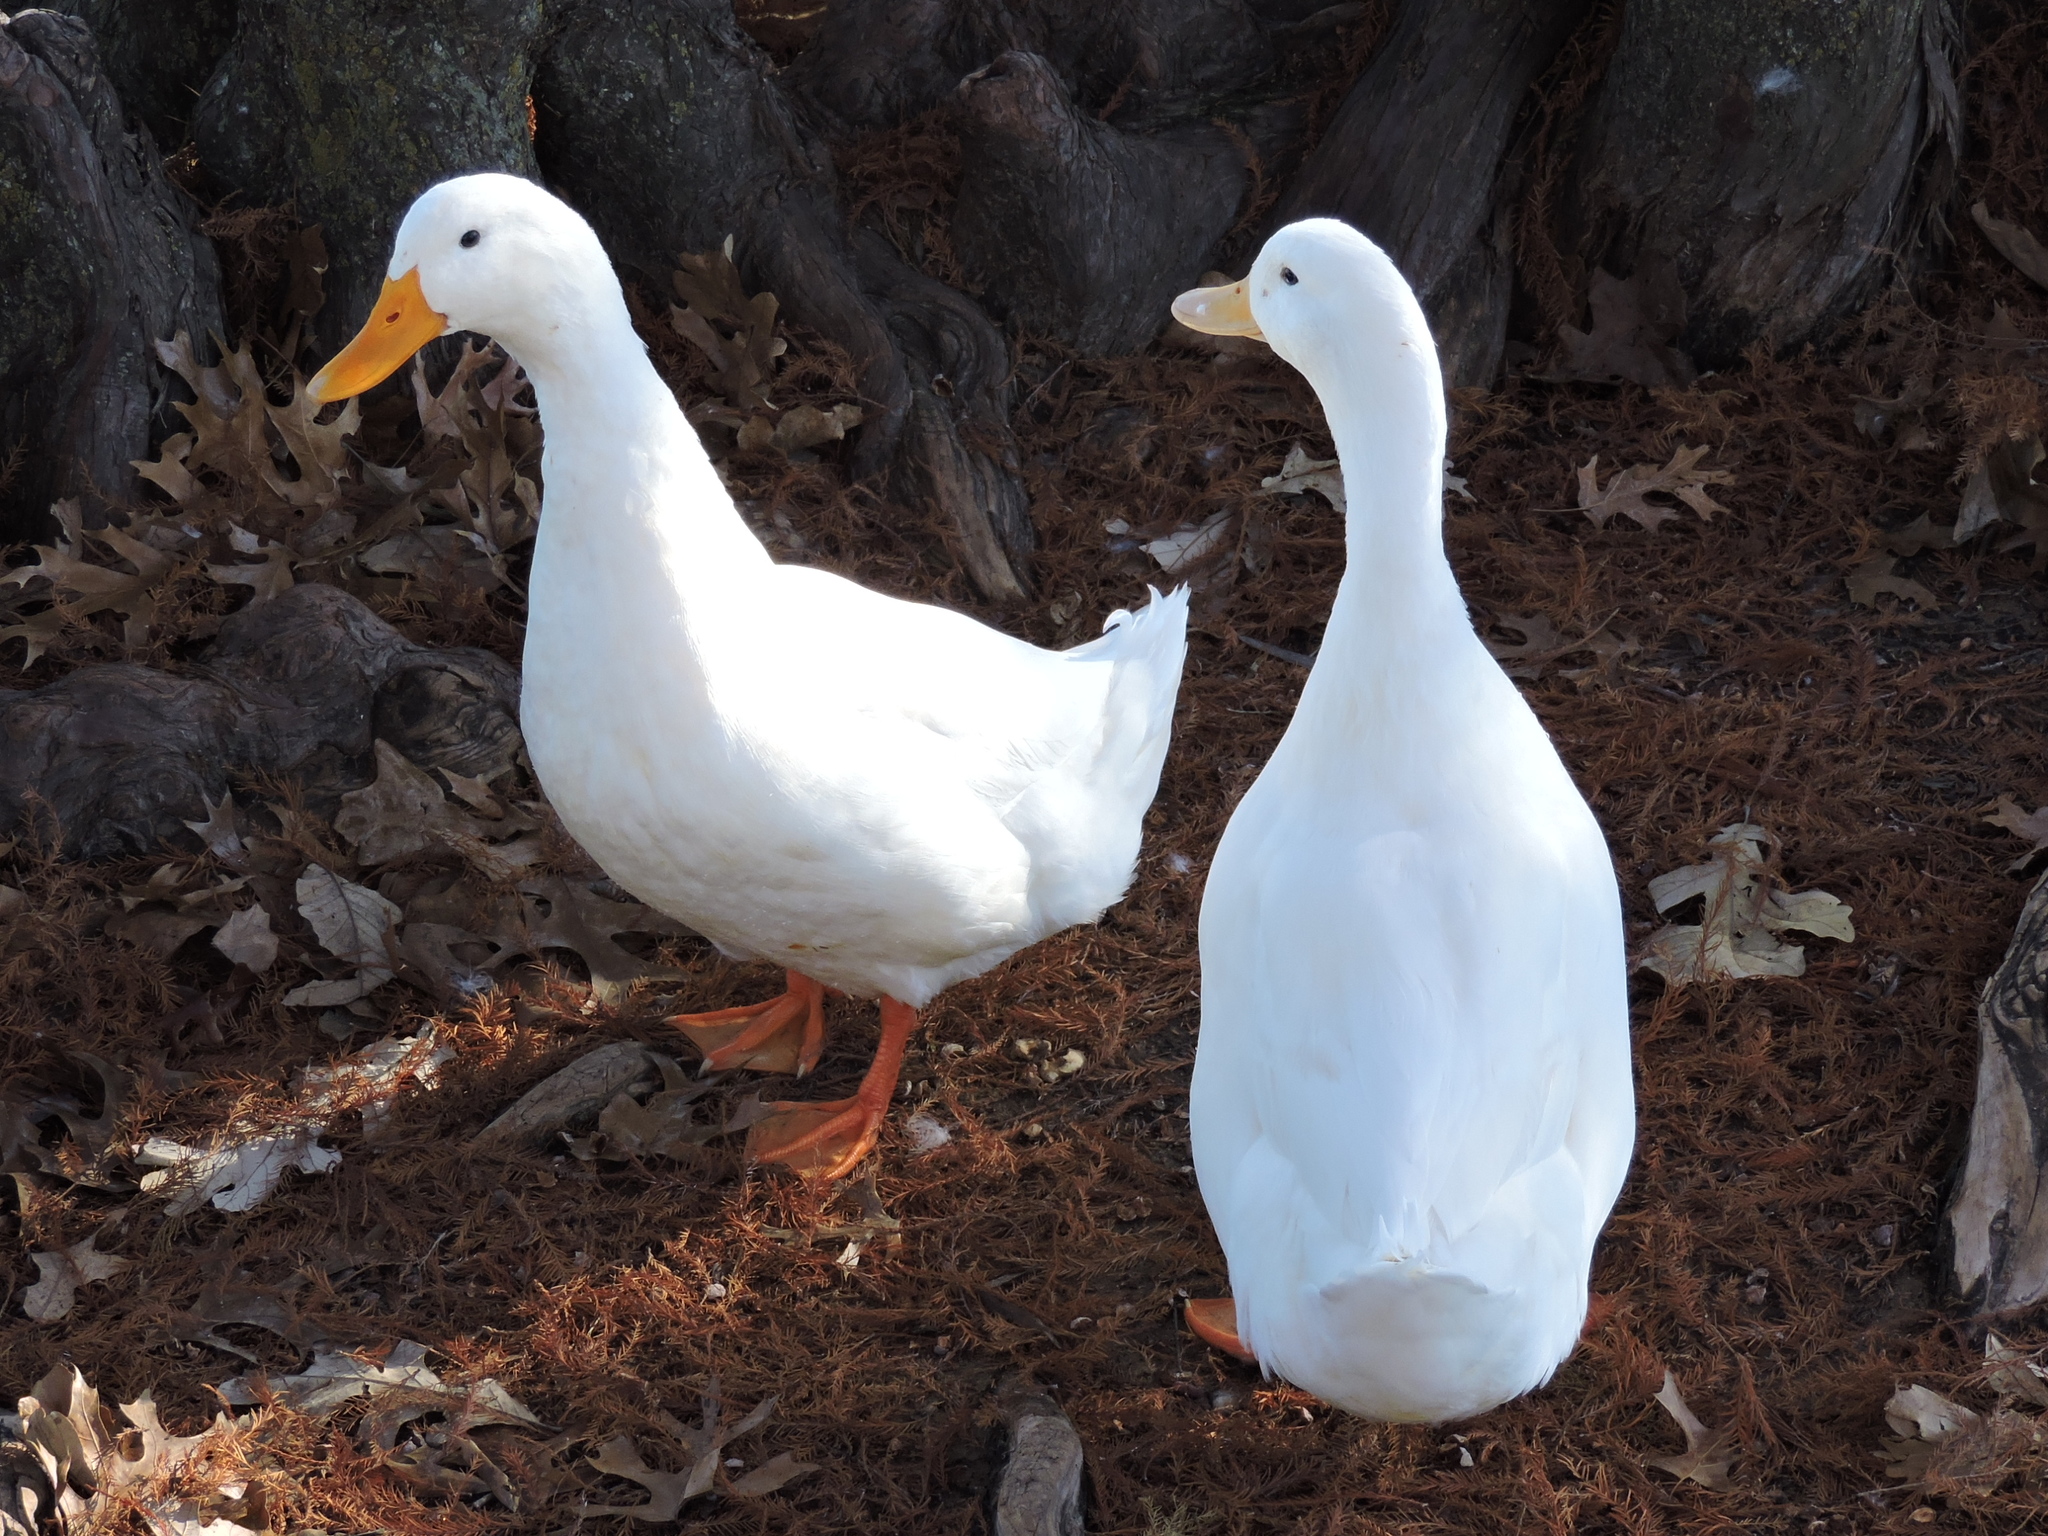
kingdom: Animalia
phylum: Chordata
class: Aves
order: Anseriformes
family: Anatidae
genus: Anas
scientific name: Anas platyrhynchos
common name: Mallard
